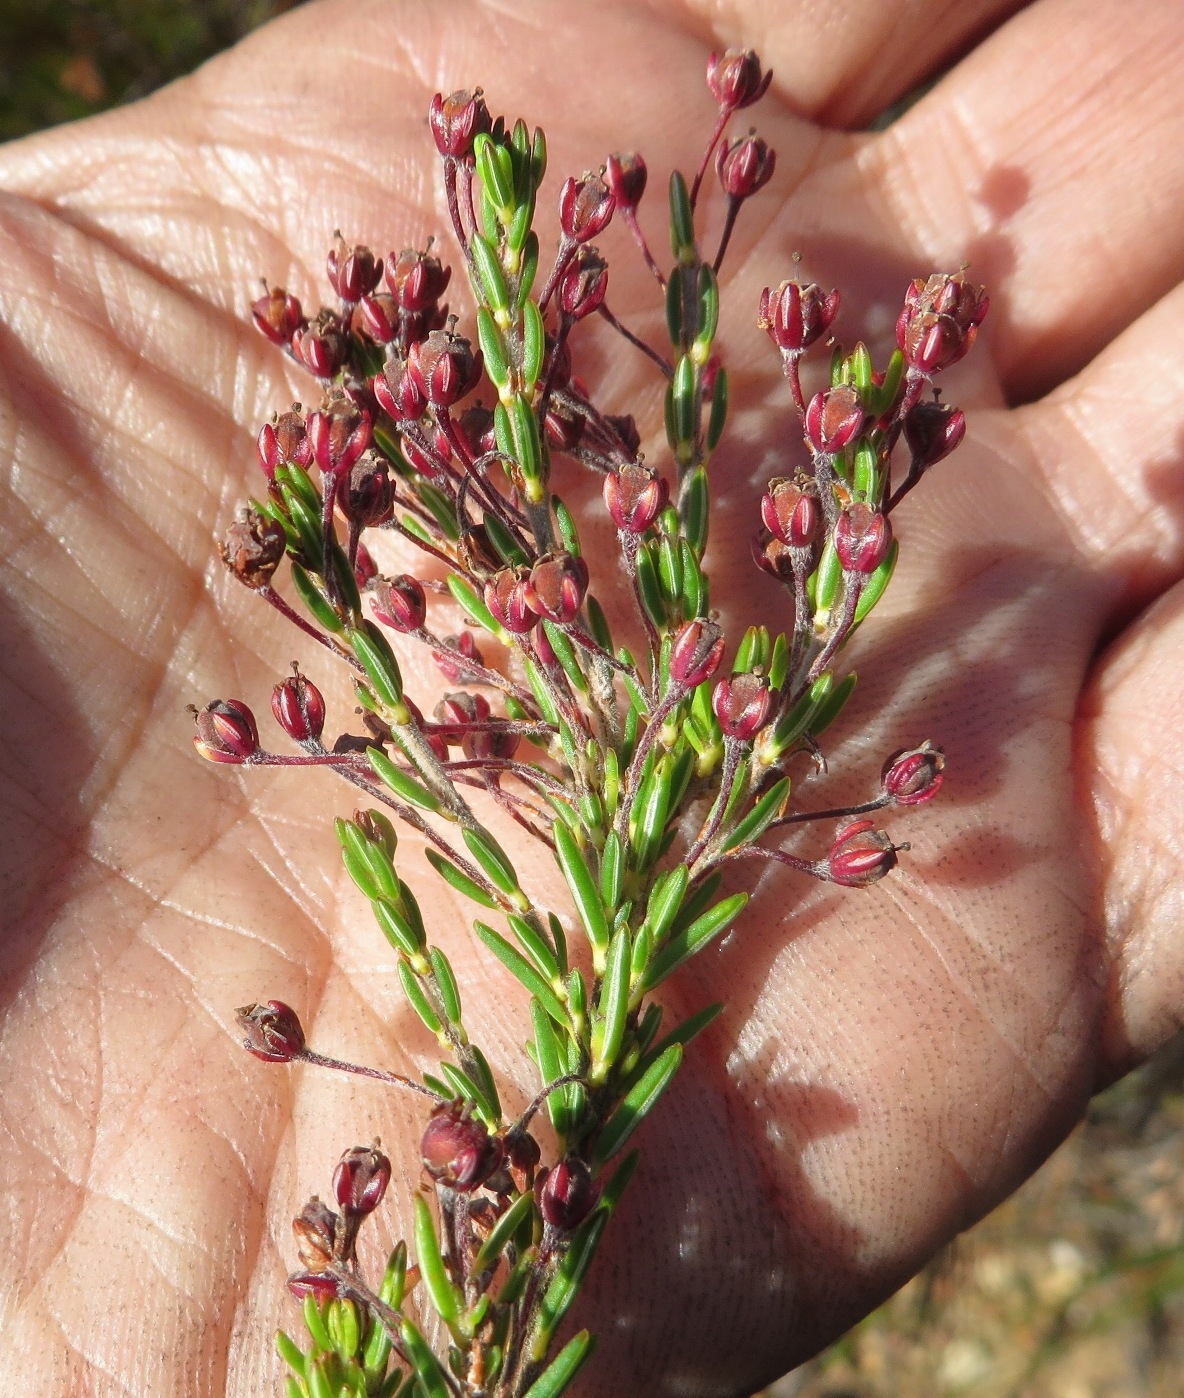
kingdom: Plantae
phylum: Tracheophyta
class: Magnoliopsida
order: Ericales
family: Ericaceae
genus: Erica
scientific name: Erica pulchella
